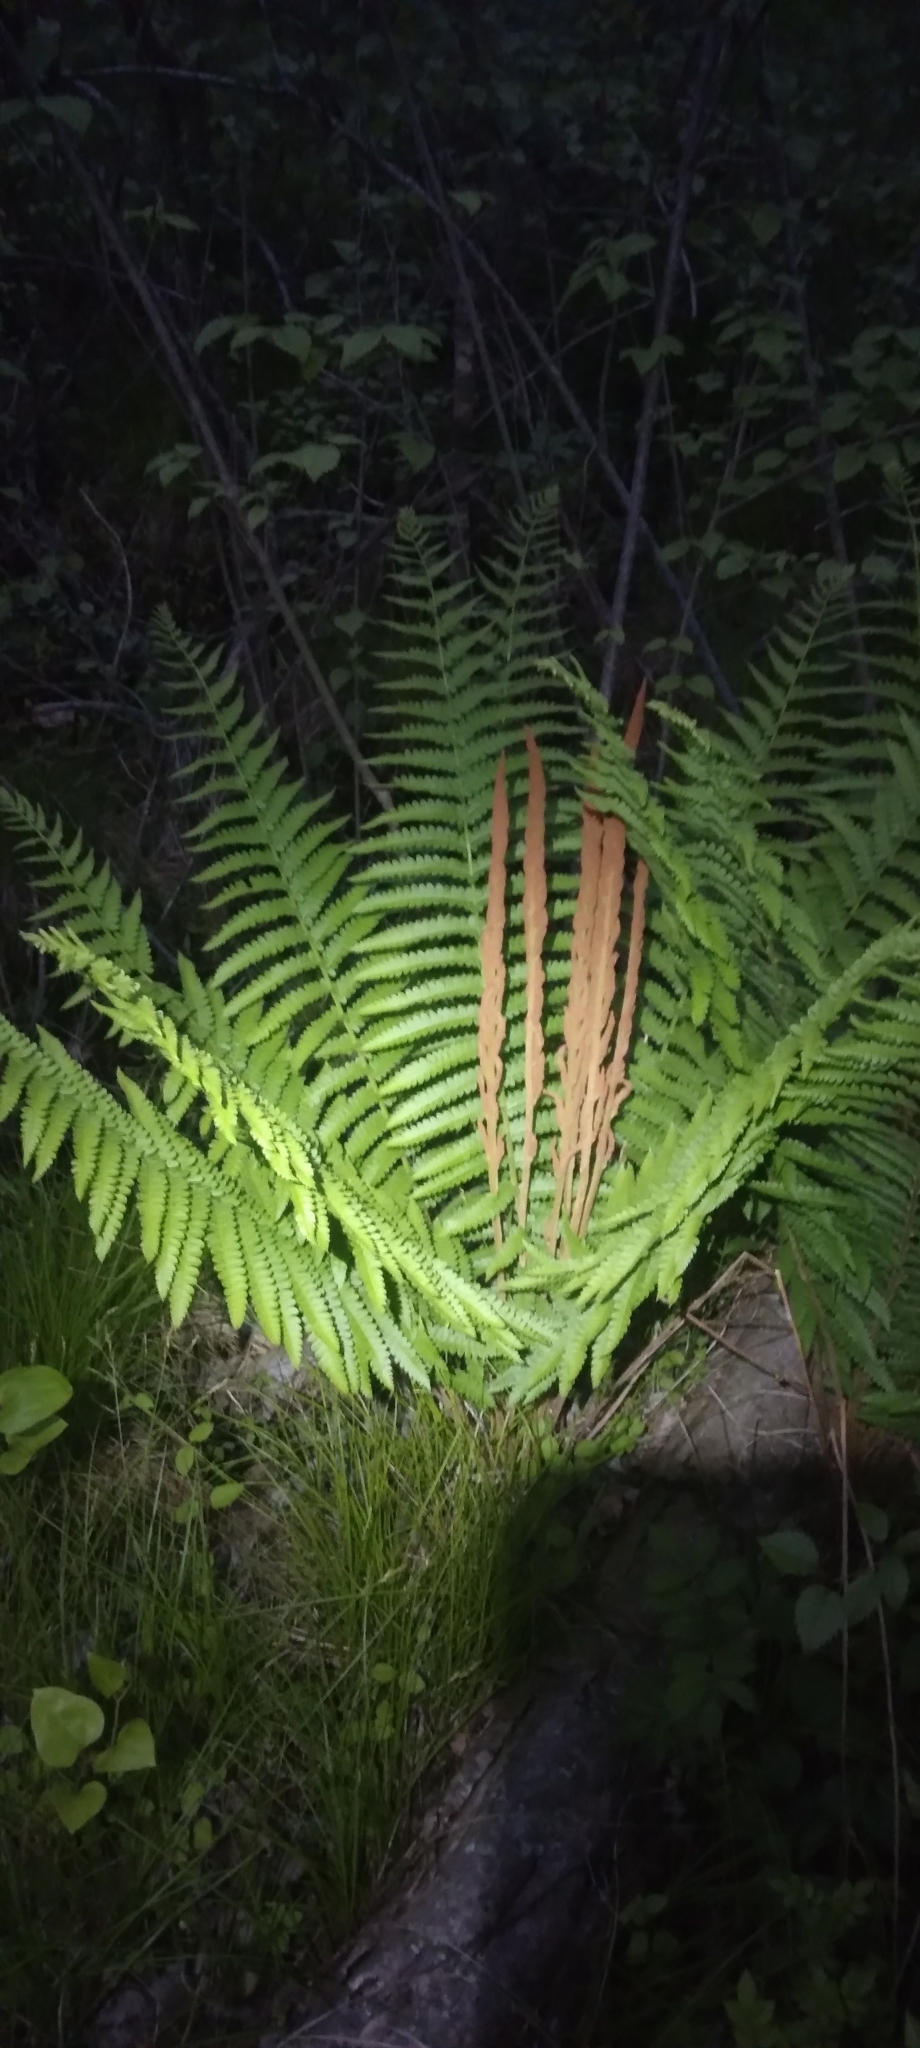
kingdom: Plantae
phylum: Tracheophyta
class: Polypodiopsida
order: Osmundales
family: Osmundaceae
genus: Osmundastrum
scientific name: Osmundastrum cinnamomeum
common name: Cinnamon fern
